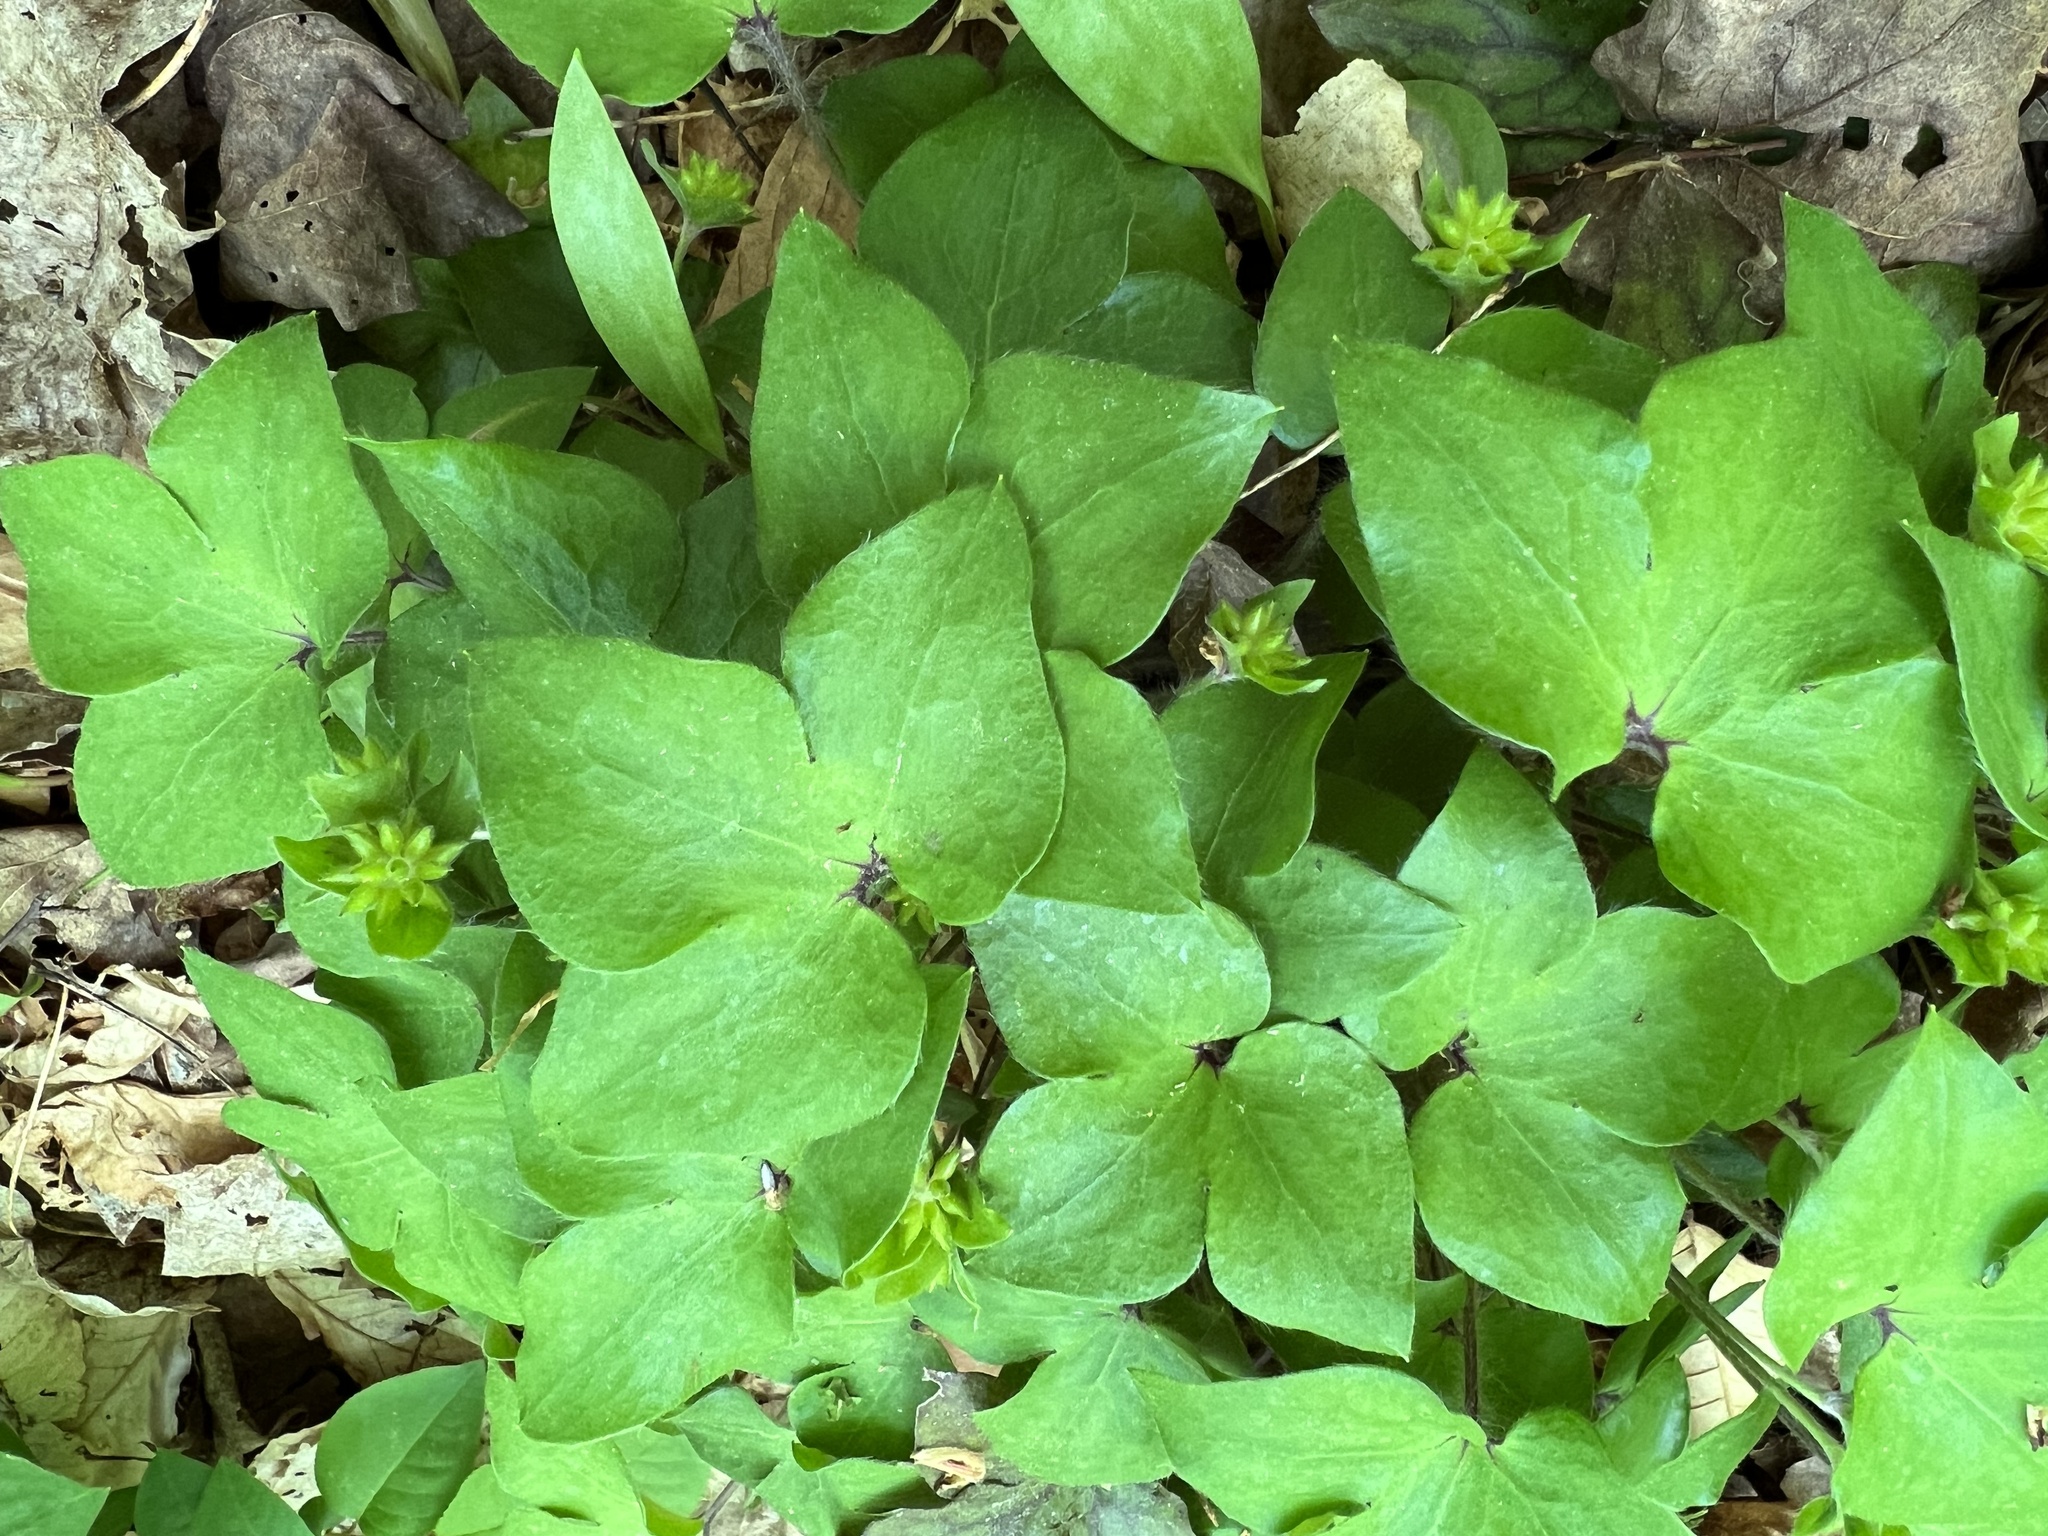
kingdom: Plantae
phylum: Tracheophyta
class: Magnoliopsida
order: Ranunculales
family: Ranunculaceae
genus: Hepatica
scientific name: Hepatica acutiloba
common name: Sharp-lobed hepatica
